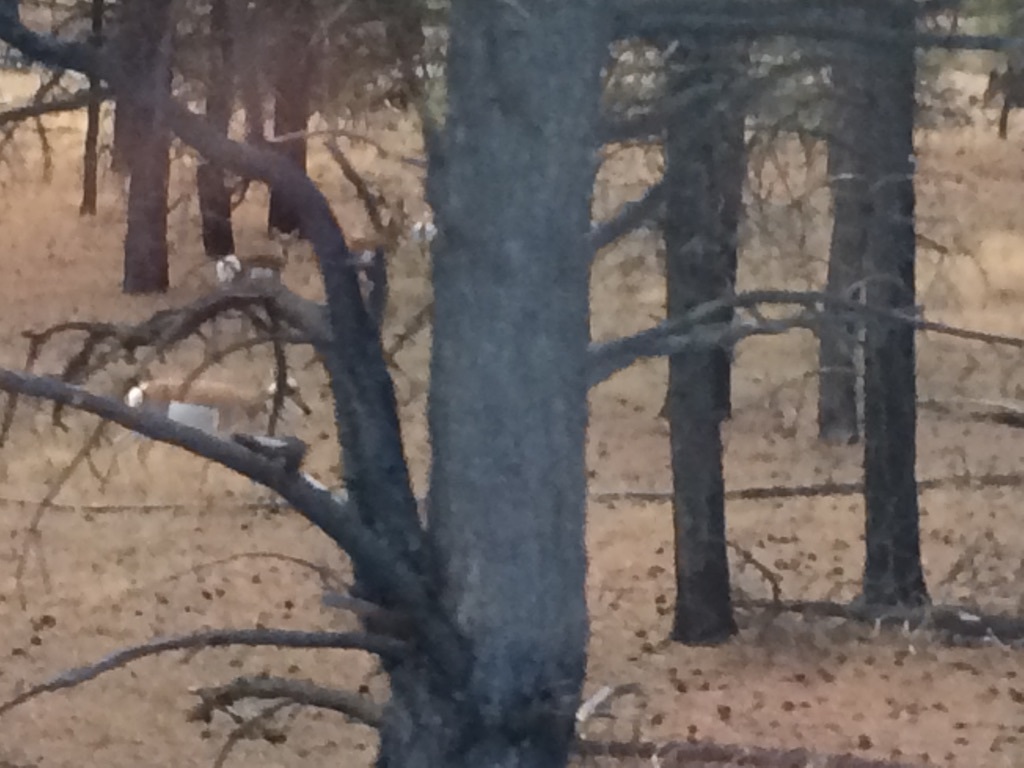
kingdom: Animalia
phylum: Chordata
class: Mammalia
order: Artiodactyla
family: Antilocapridae
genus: Antilocapra
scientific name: Antilocapra americana
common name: Pronghorn
